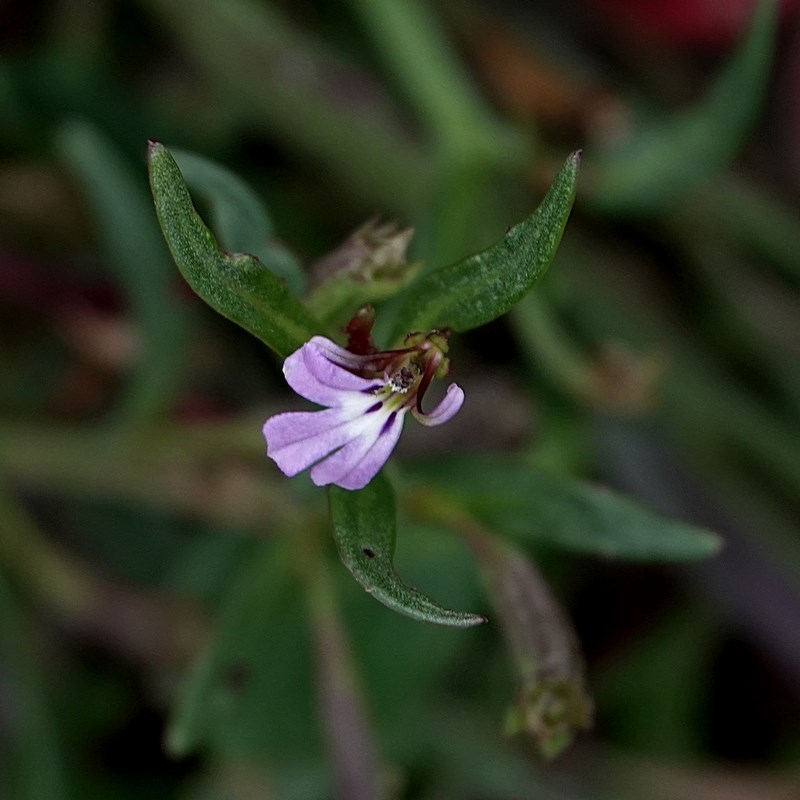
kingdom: Plantae
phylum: Tracheophyta
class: Magnoliopsida
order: Asterales
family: Campanulaceae
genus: Lobelia
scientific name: Lobelia anceps
